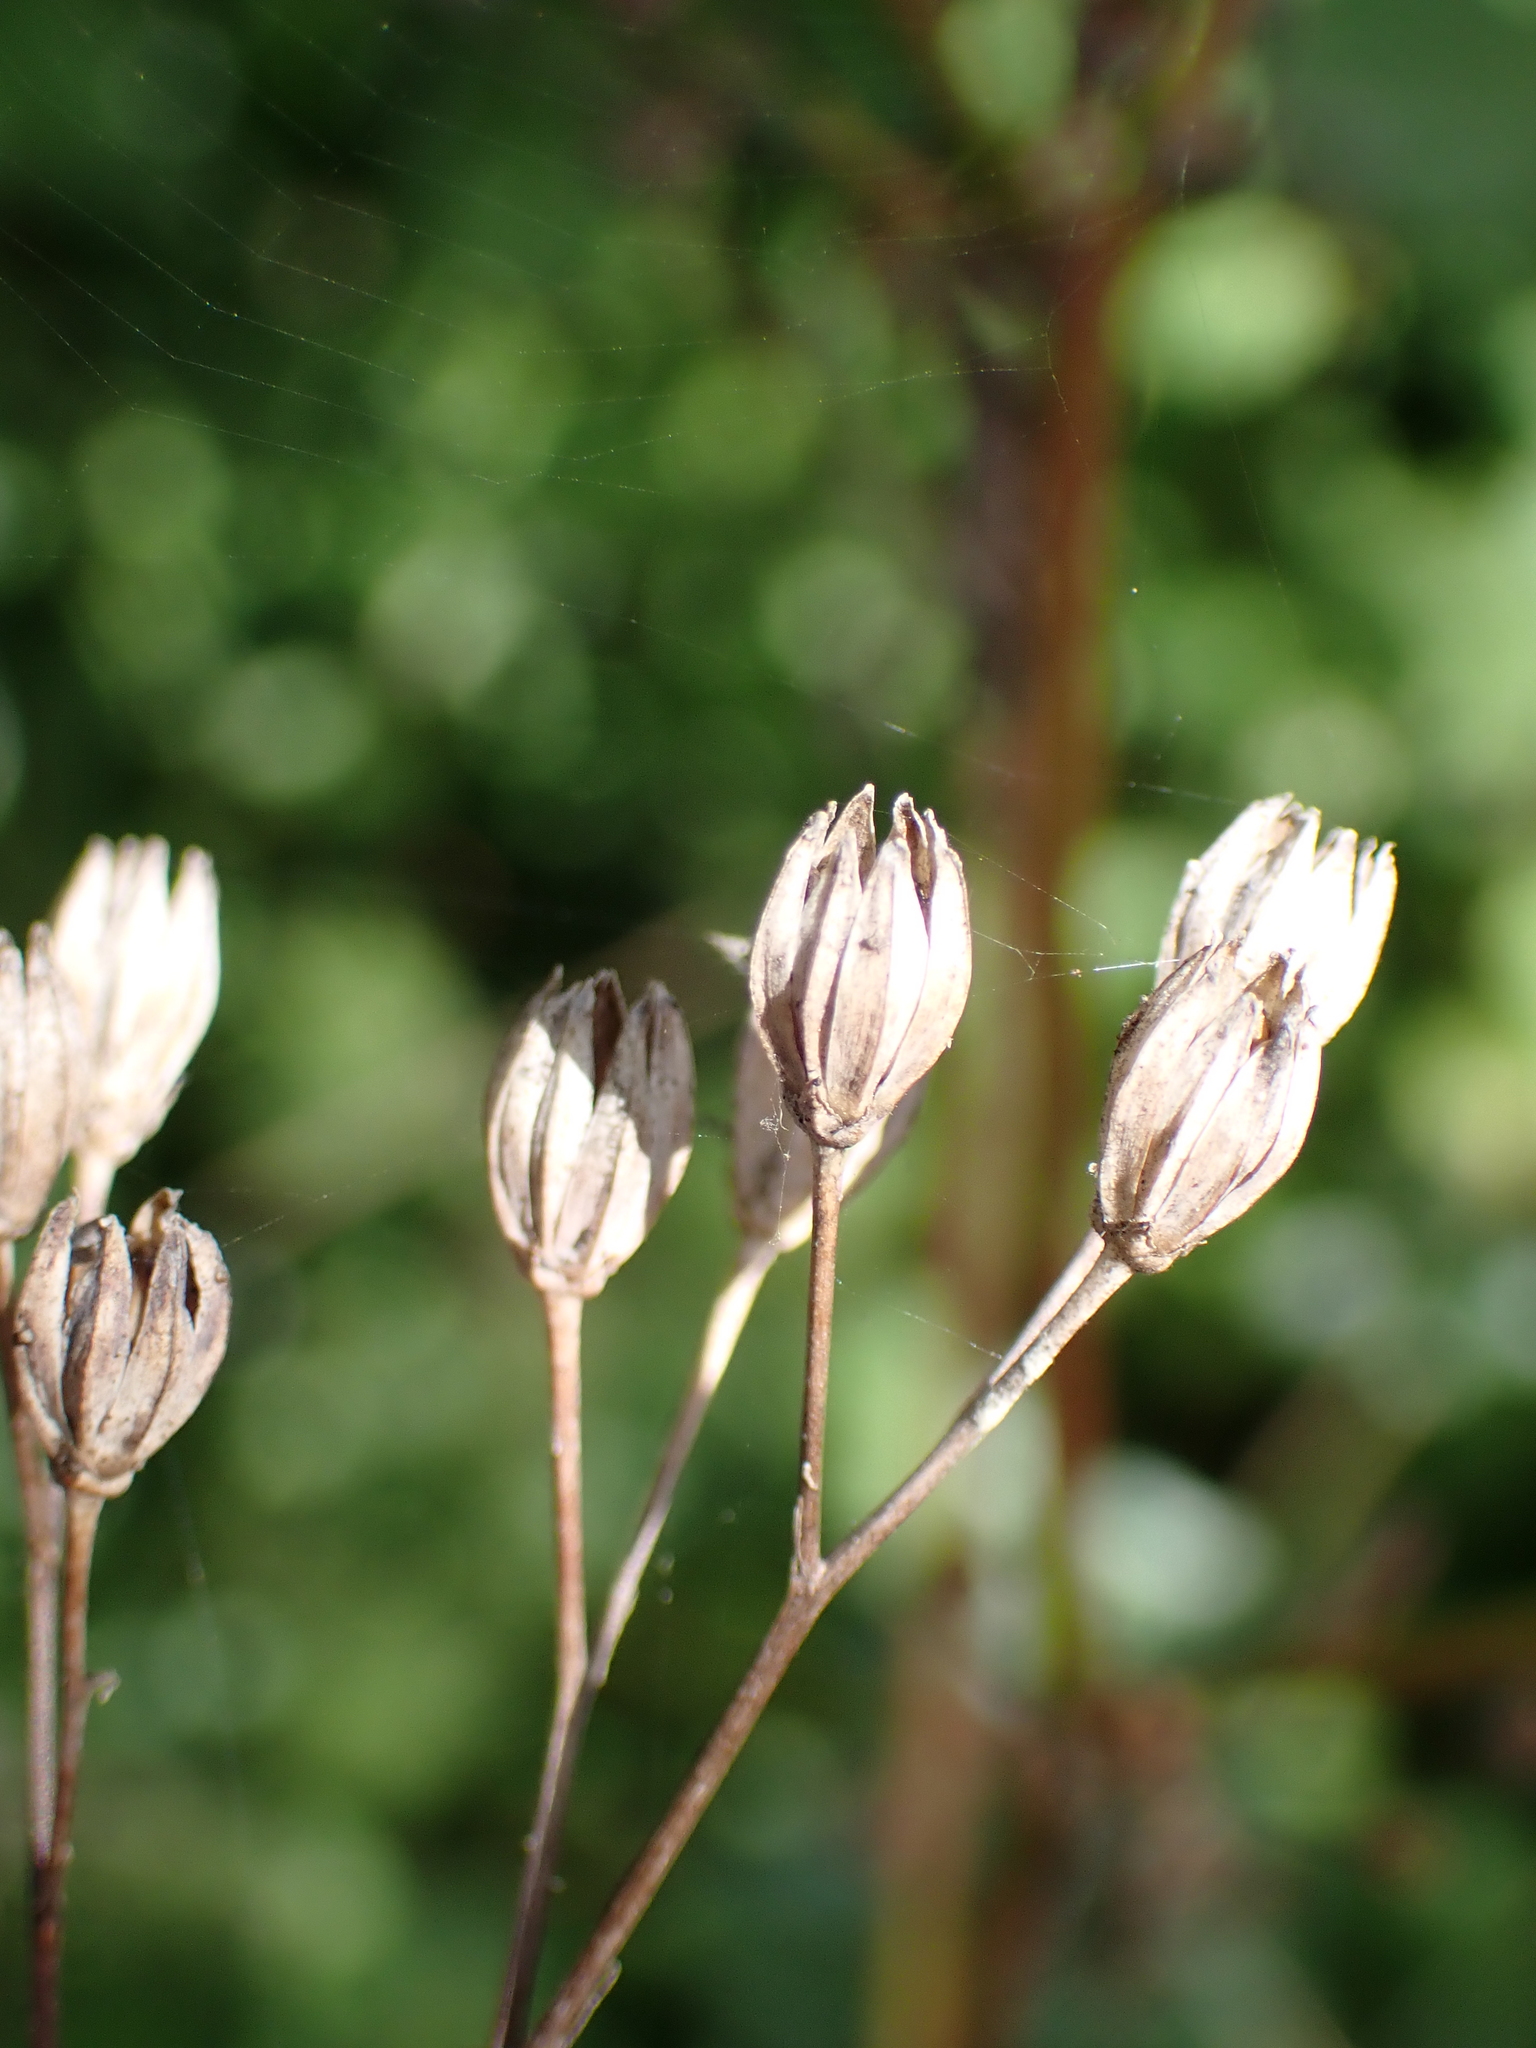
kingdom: Plantae
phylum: Tracheophyta
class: Magnoliopsida
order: Asterales
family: Asteraceae
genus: Lapsana
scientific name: Lapsana communis
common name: Nipplewort
